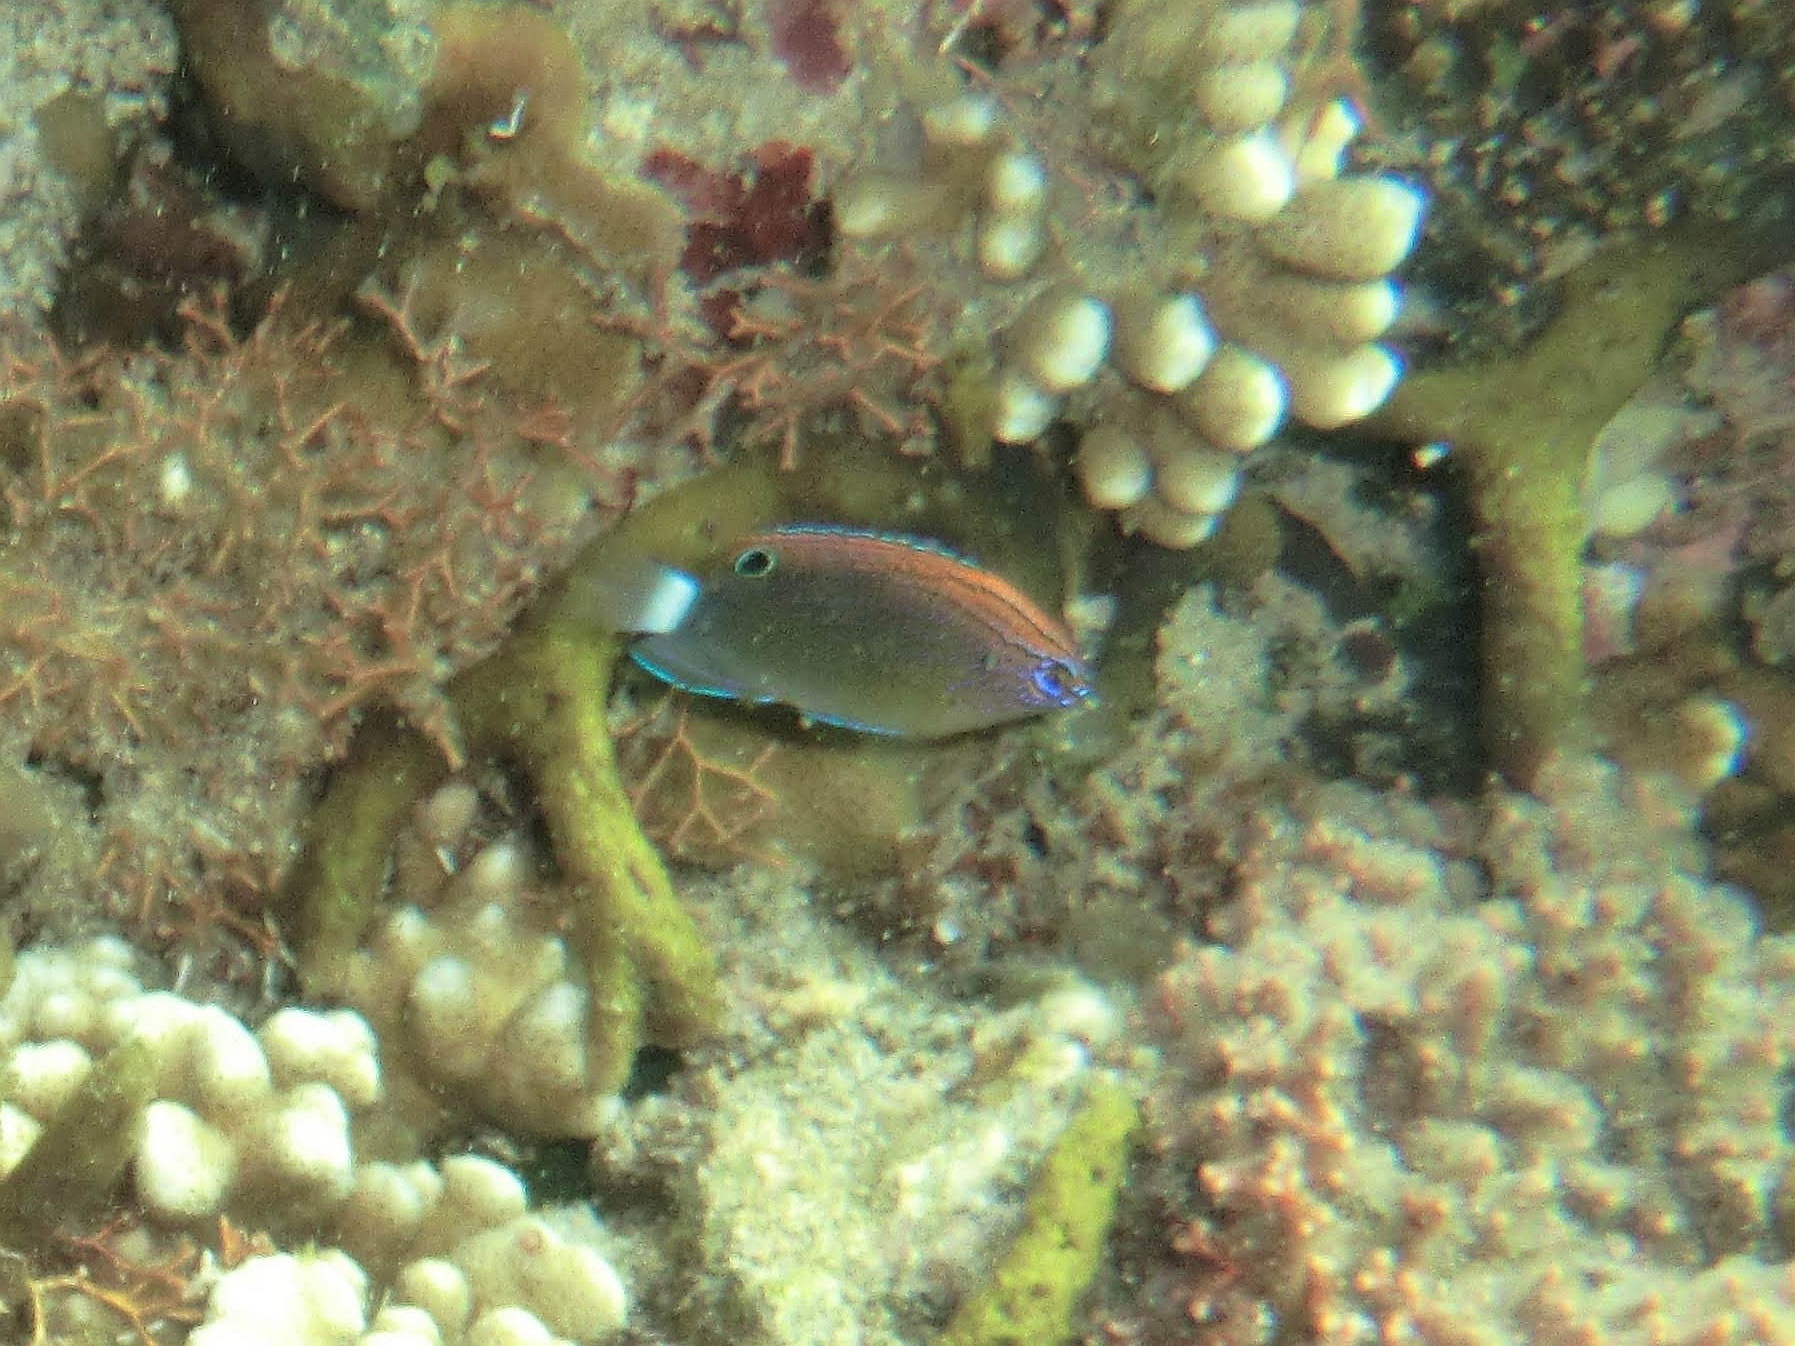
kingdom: Animalia
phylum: Chordata
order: Perciformes
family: Pomacentridae
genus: Pomacentrus
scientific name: Pomacentrus bankanensis
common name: Speckled damsel
